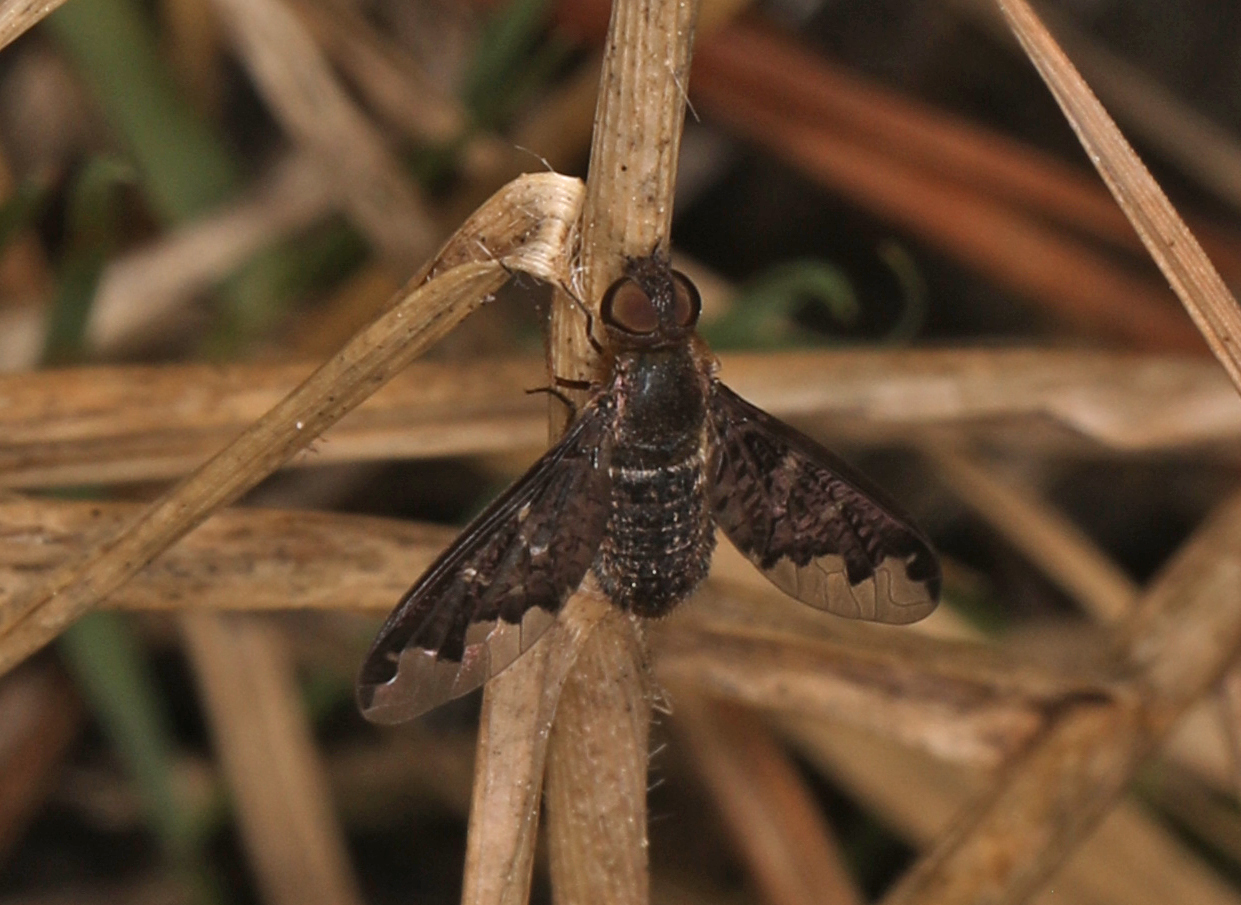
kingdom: Animalia
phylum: Arthropoda
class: Insecta
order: Diptera
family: Bombyliidae
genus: Hemipenthes
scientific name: Hemipenthes sinuosus
